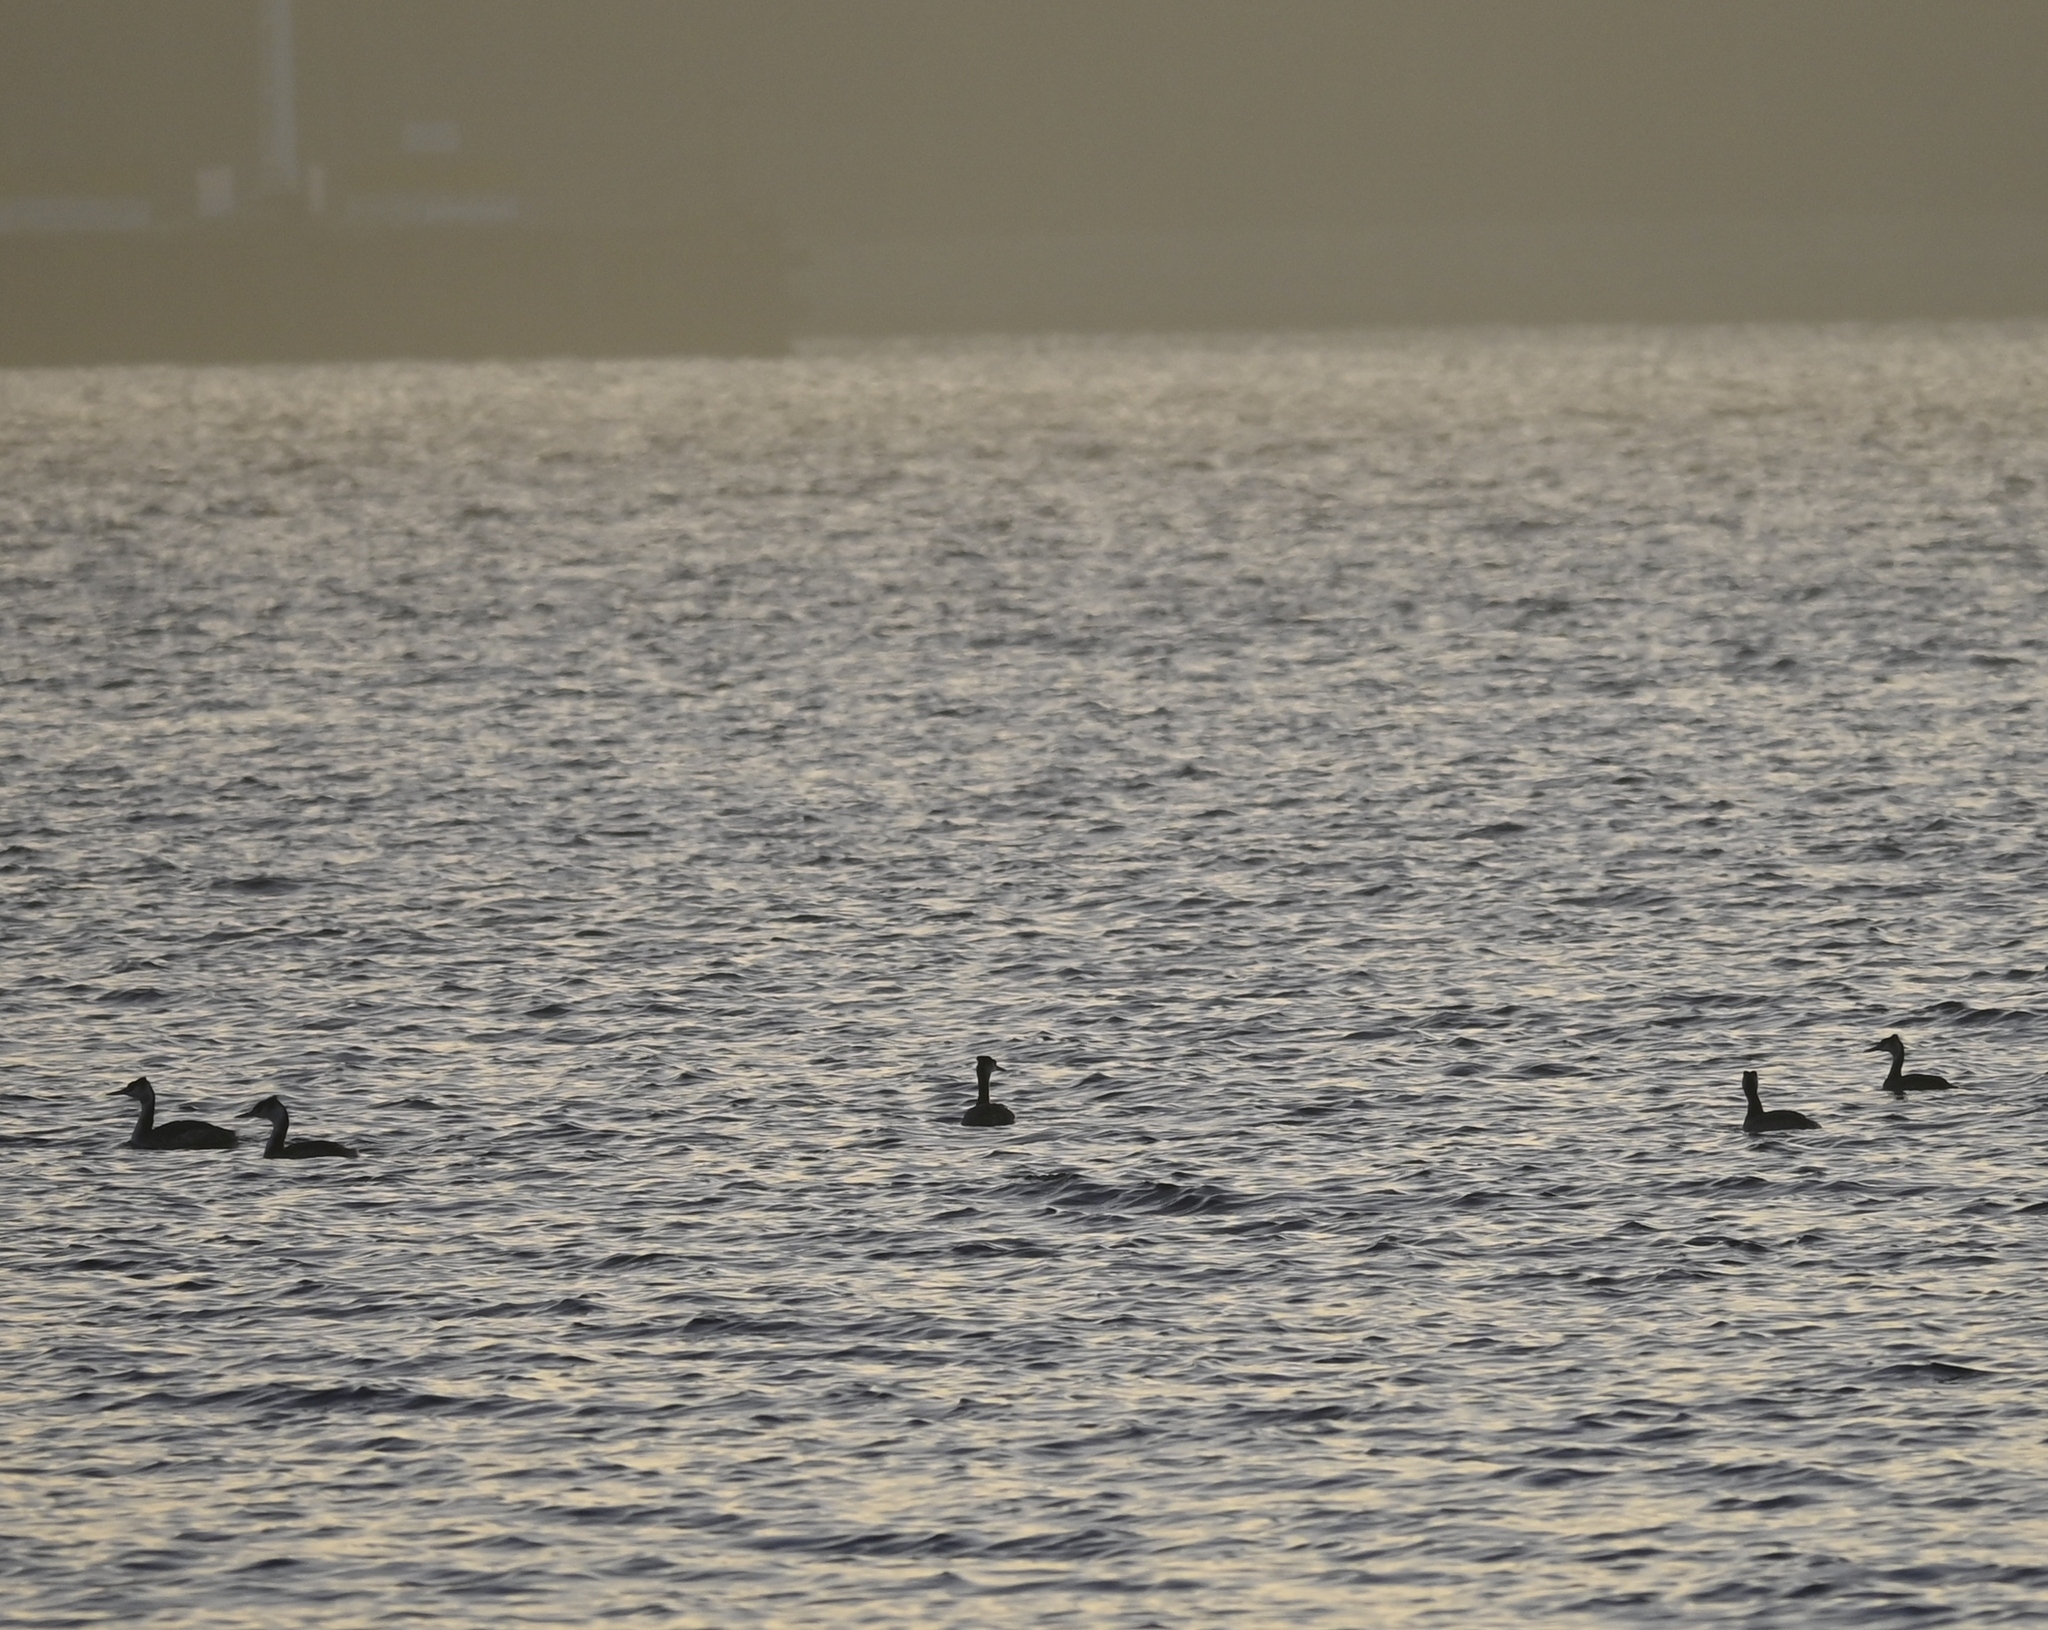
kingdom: Animalia
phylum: Chordata
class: Aves
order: Podicipediformes
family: Podicipedidae
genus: Podiceps
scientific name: Podiceps cristatus
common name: Great crested grebe
